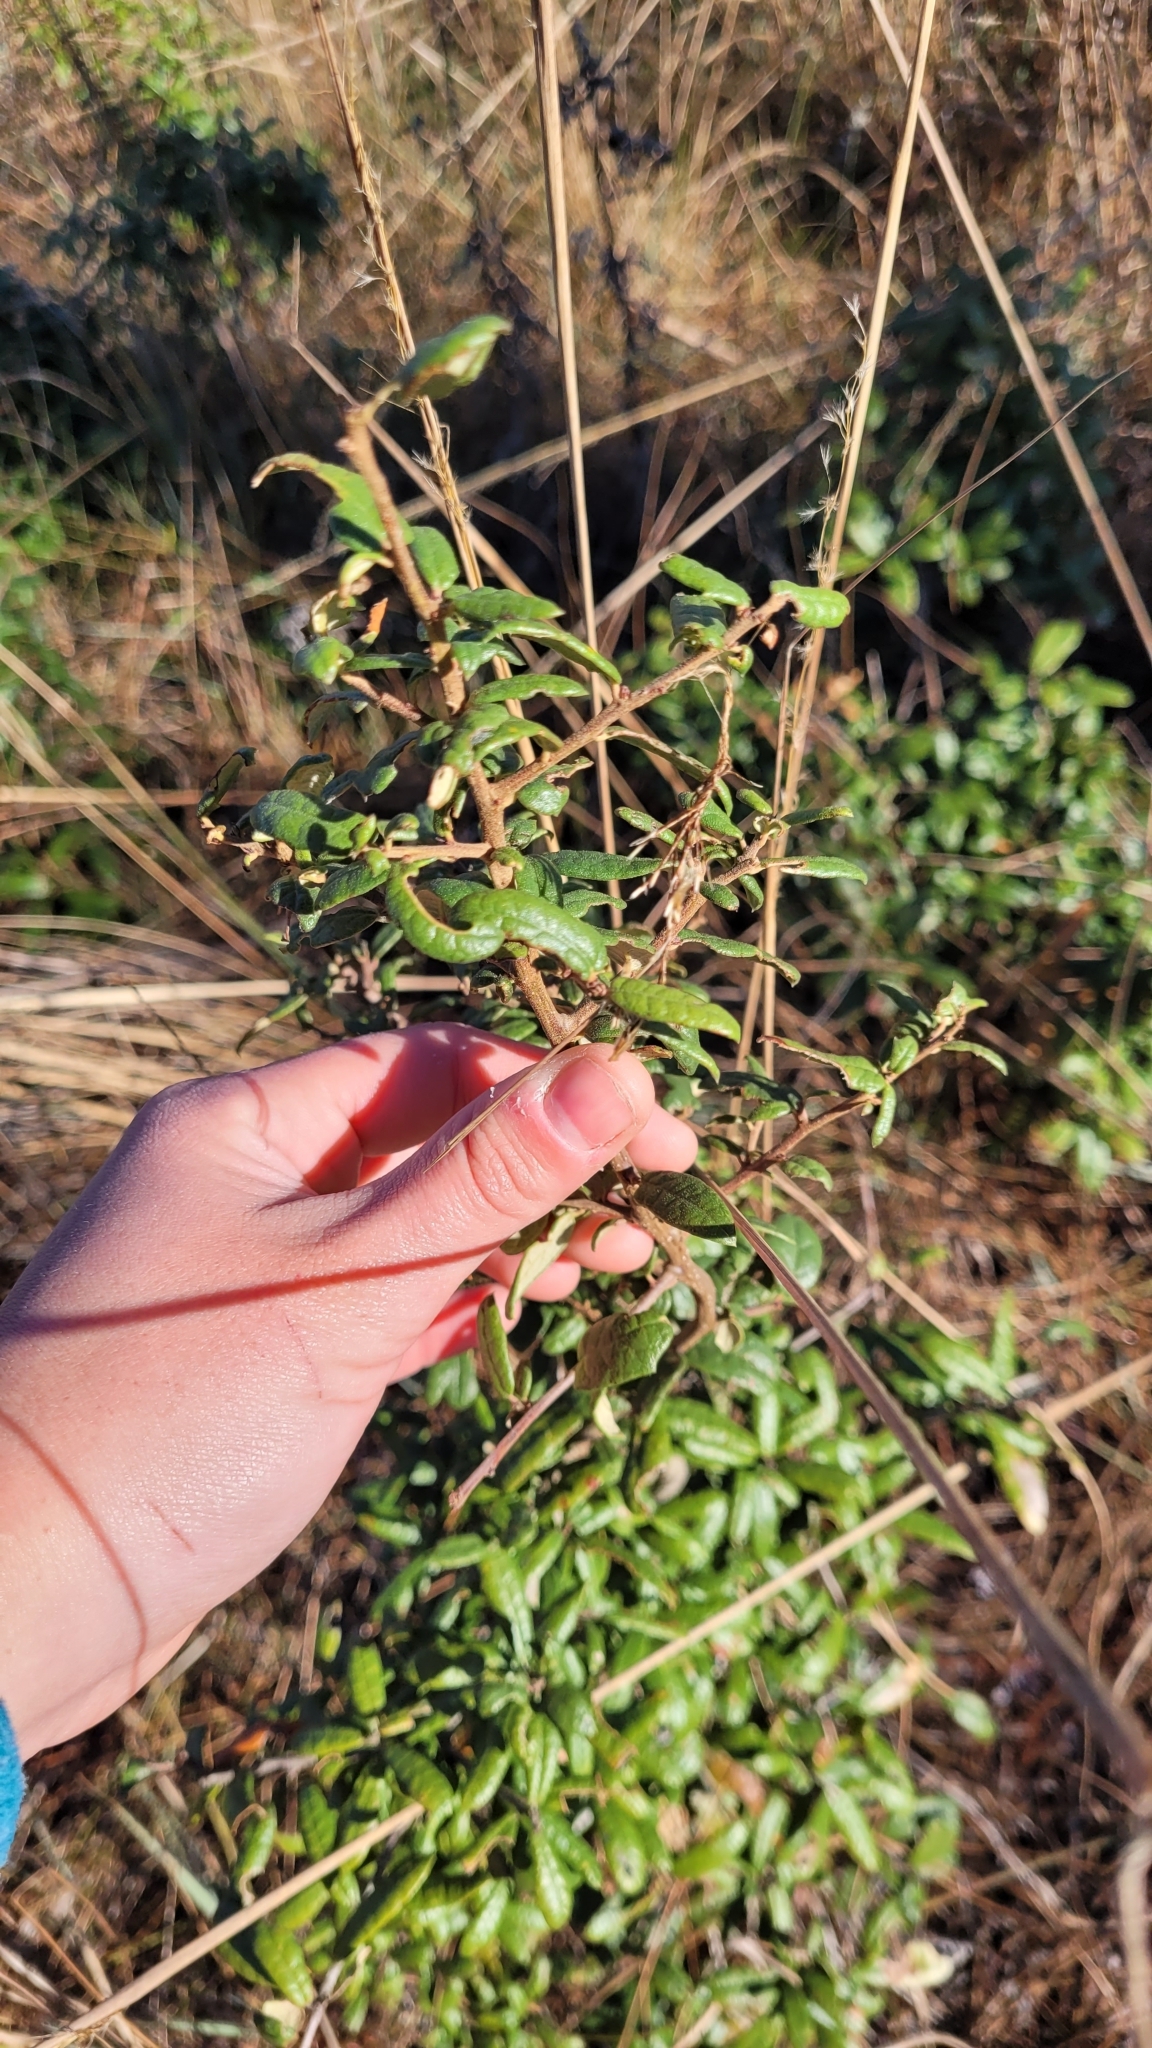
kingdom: Plantae
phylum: Tracheophyta
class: Magnoliopsida
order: Fagales
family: Fagaceae
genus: Quercus
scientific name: Quercus geminata
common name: Sand live oak
